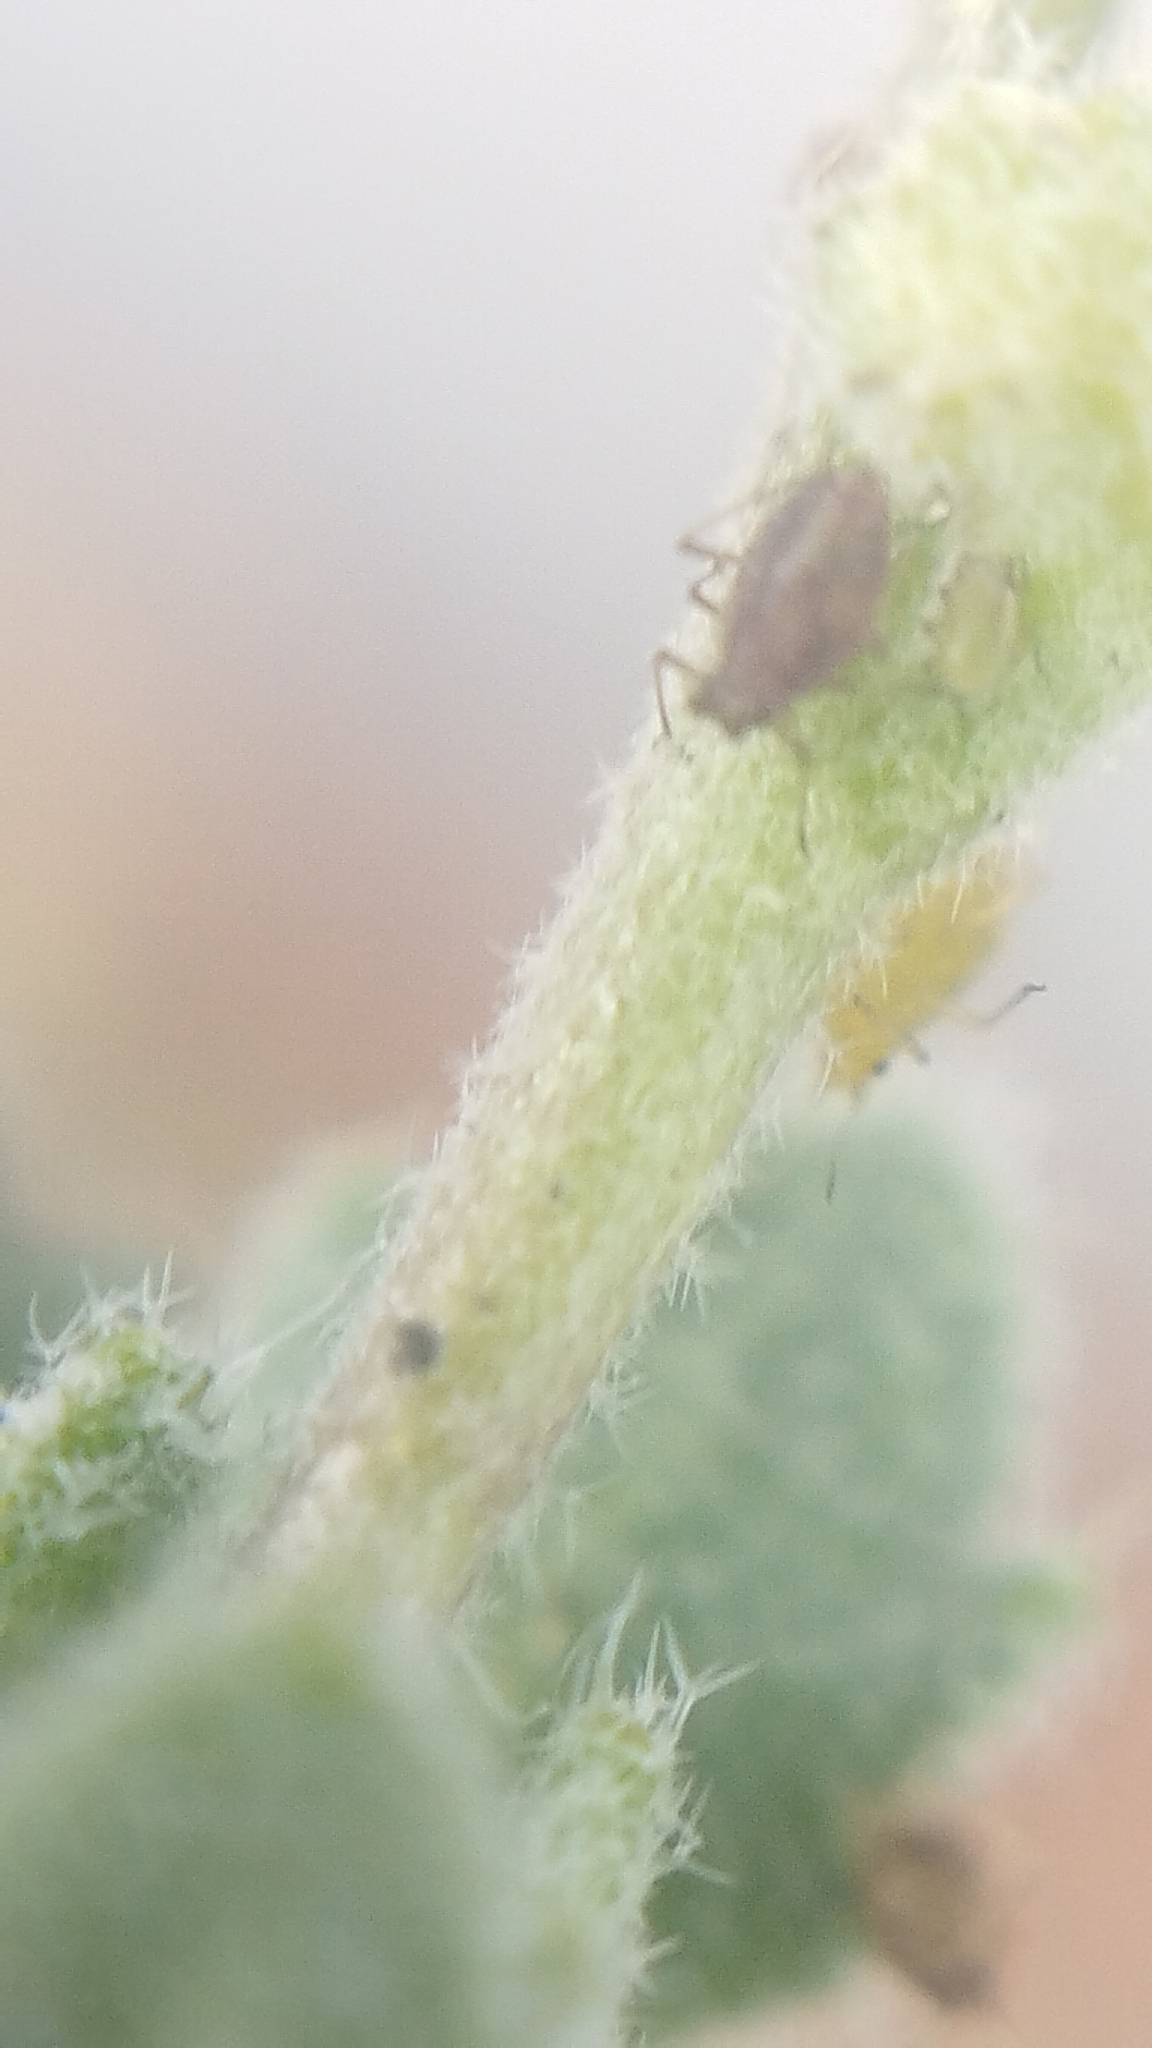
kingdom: Plantae
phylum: Tracheophyta
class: Magnoliopsida
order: Brassicales
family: Brassicaceae
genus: Aubrieta
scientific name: Aubrieta deltoidea
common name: Aubretia
